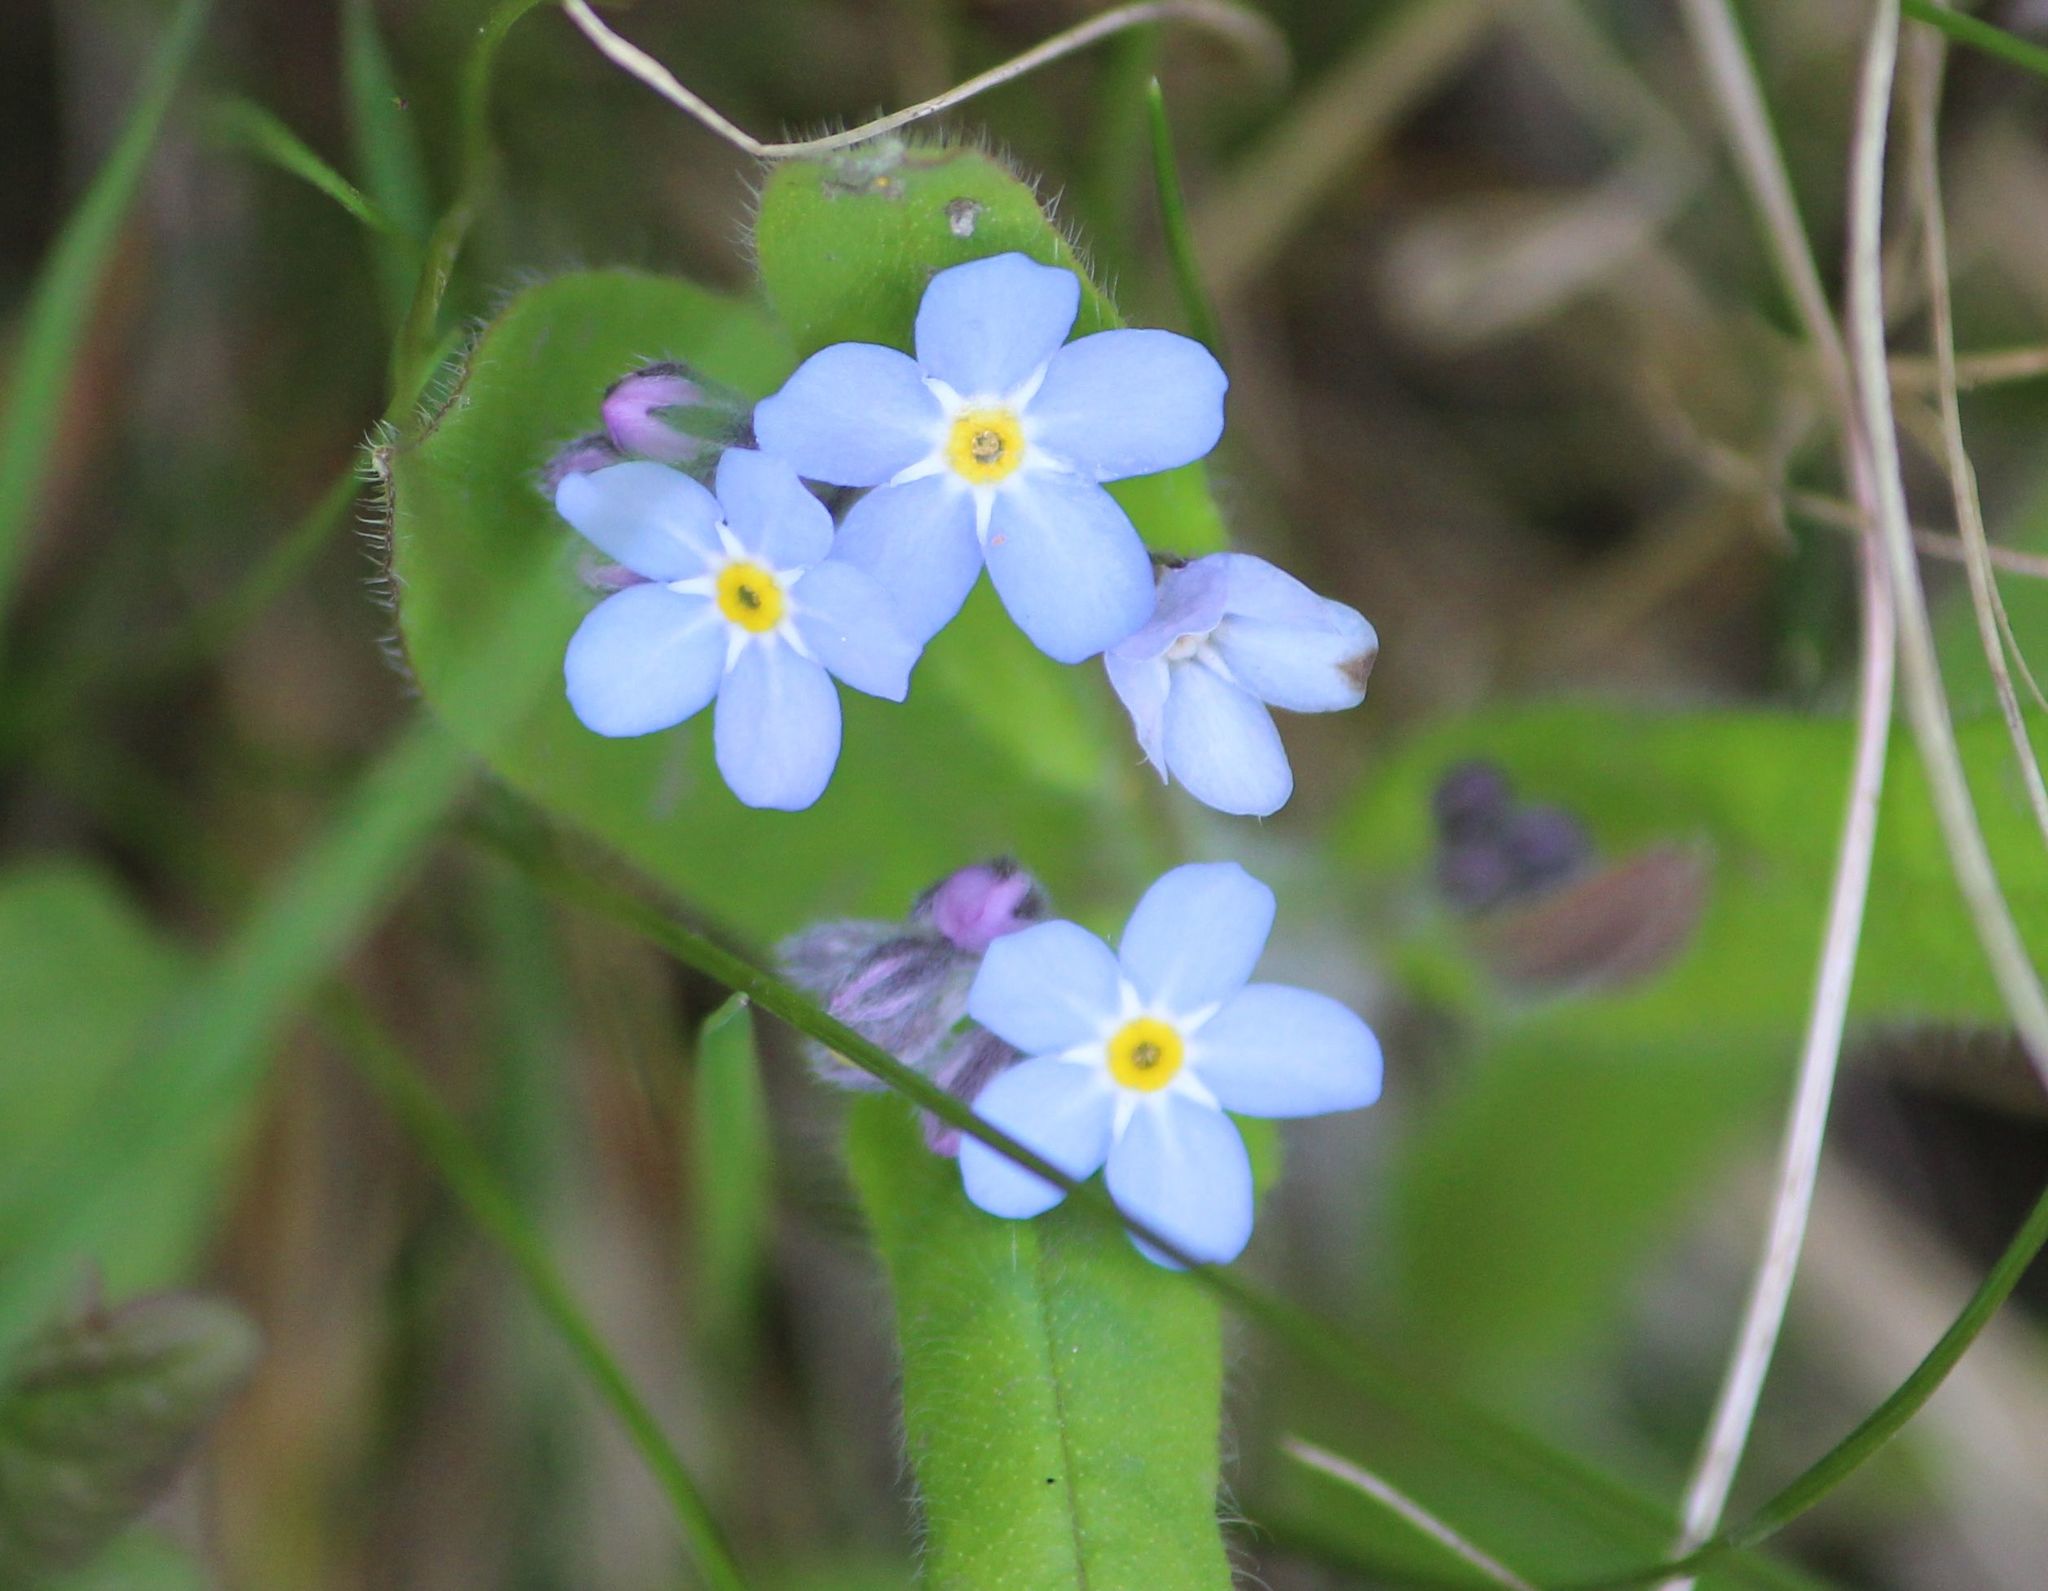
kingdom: Plantae
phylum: Tracheophyta
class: Magnoliopsida
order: Boraginales
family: Boraginaceae
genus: Myosotis
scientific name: Myosotis sylvatica
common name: Wood forget-me-not
